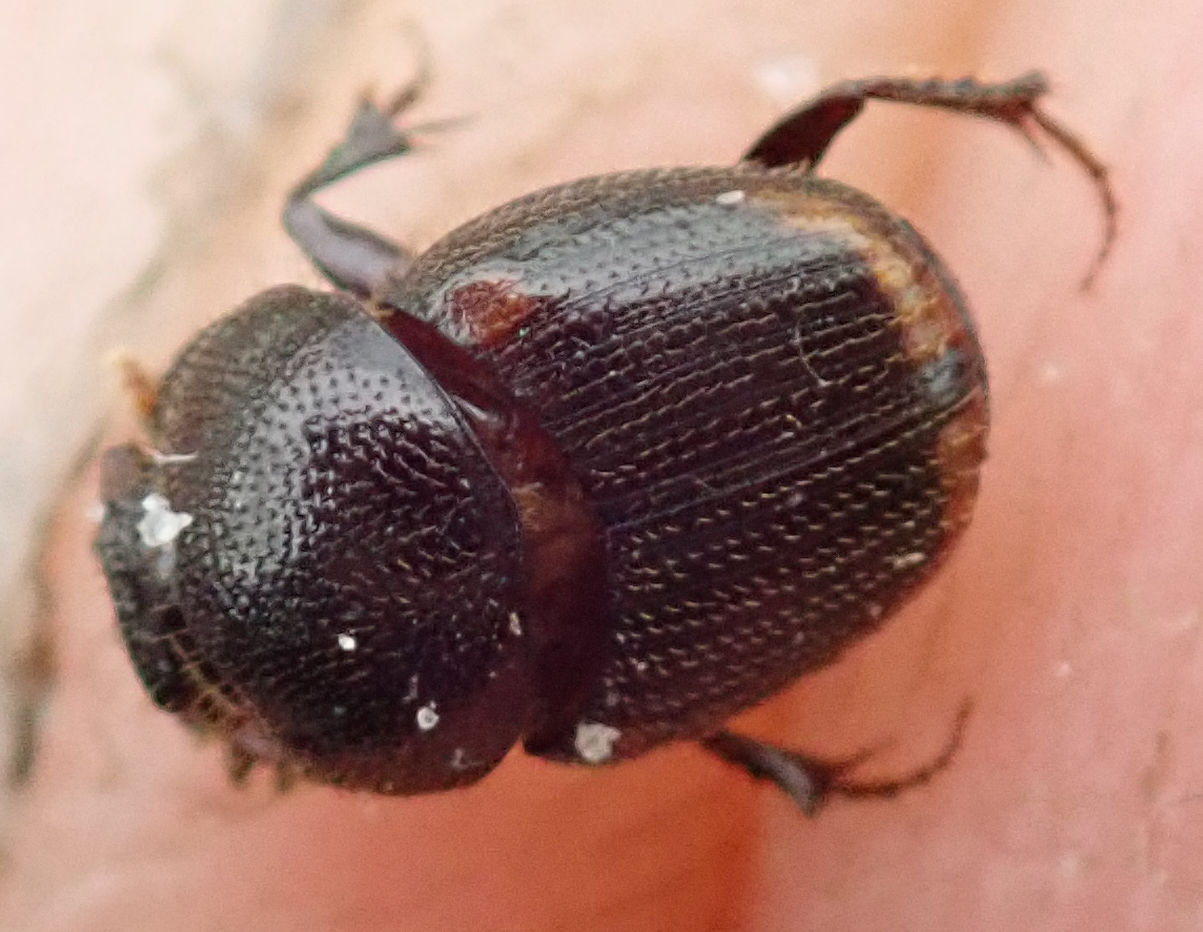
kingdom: Animalia
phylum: Arthropoda
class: Insecta
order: Coleoptera
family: Scarabaeidae
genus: Onthophagus
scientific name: Onthophagus quadrimaculatus
